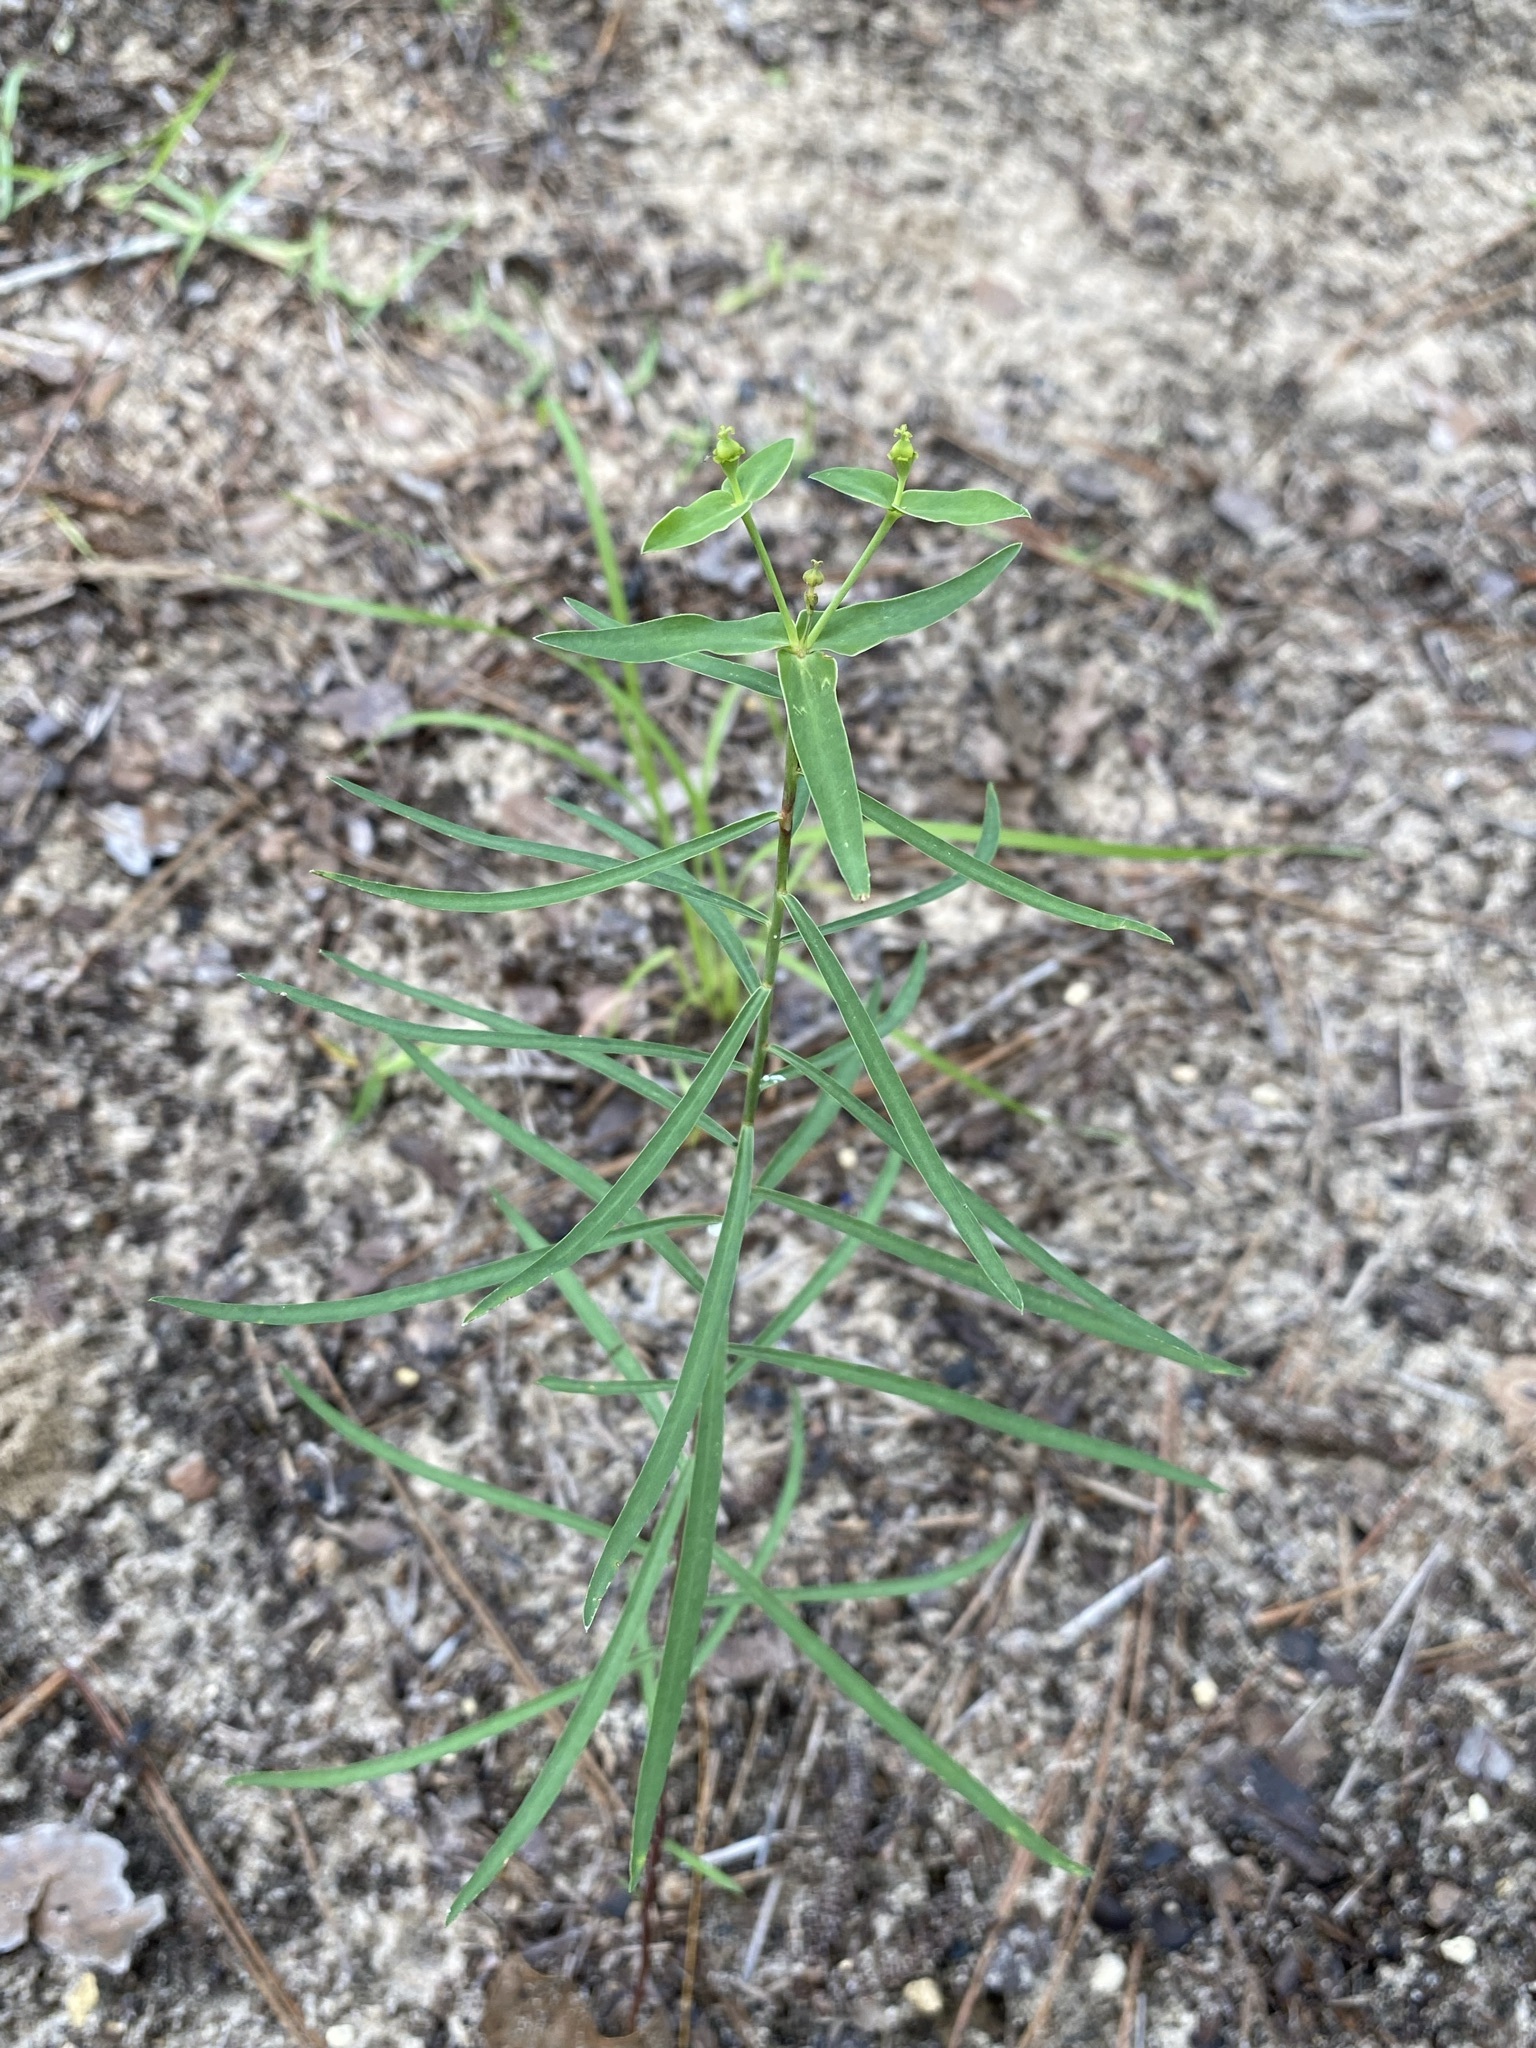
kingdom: Plantae
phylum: Tracheophyta
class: Magnoliopsida
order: Malpighiales
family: Euphorbiaceae
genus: Euphorbia
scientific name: Euphorbia floridana
